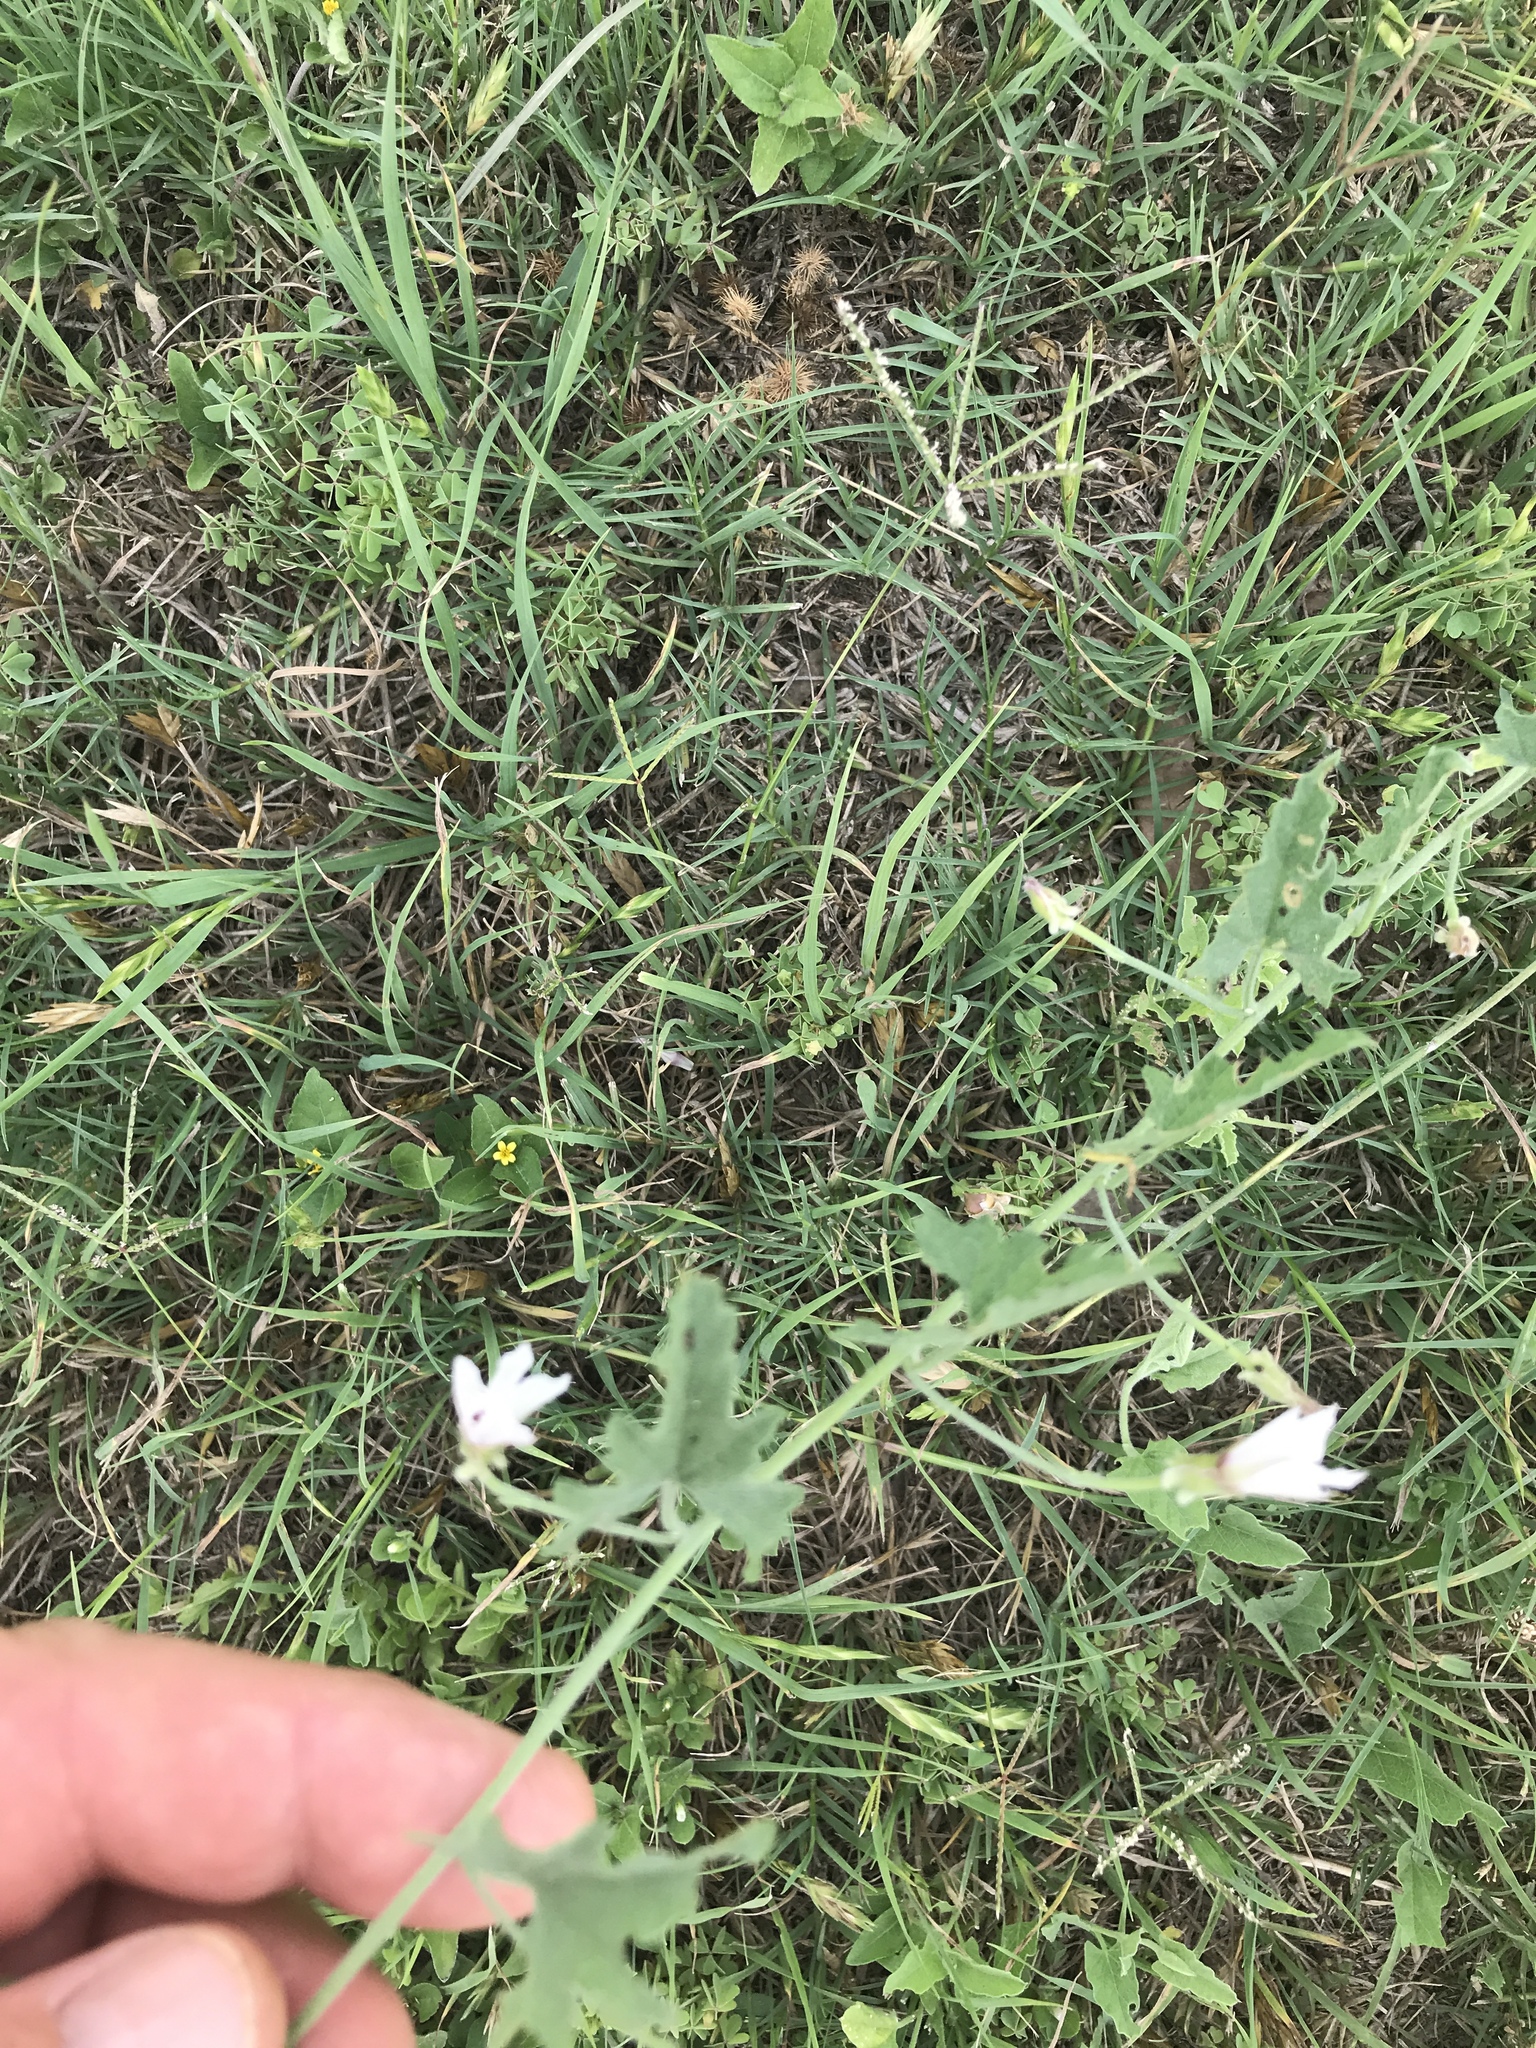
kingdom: Plantae
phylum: Tracheophyta
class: Magnoliopsida
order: Solanales
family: Convolvulaceae
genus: Convolvulus
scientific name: Convolvulus equitans
